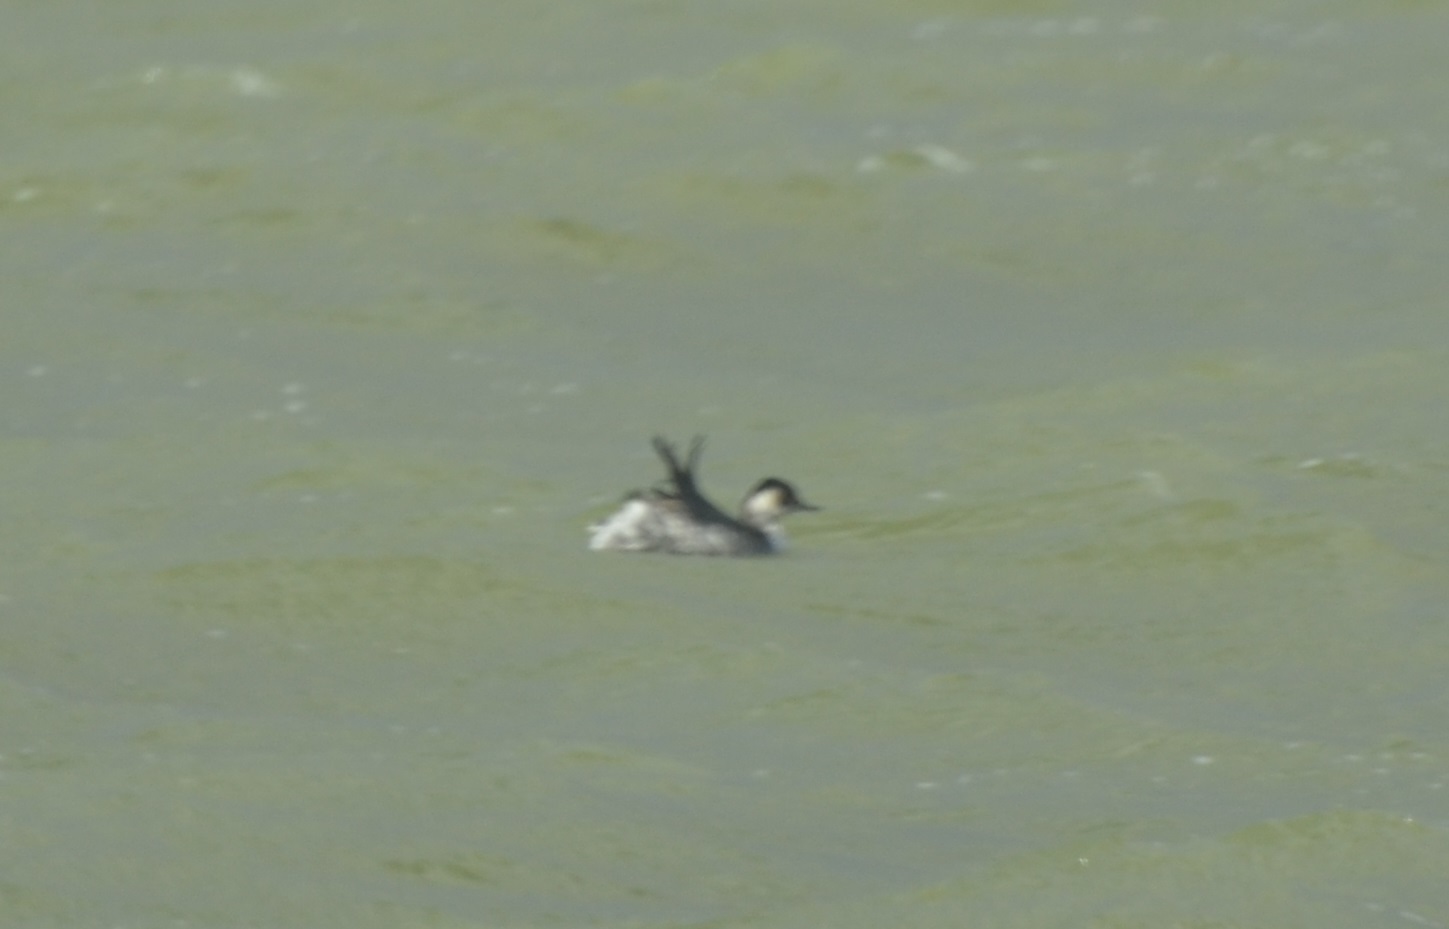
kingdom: Animalia
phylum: Chordata
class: Aves
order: Podicipediformes
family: Podicipedidae
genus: Podiceps
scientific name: Podiceps nigricollis
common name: Black-necked grebe
